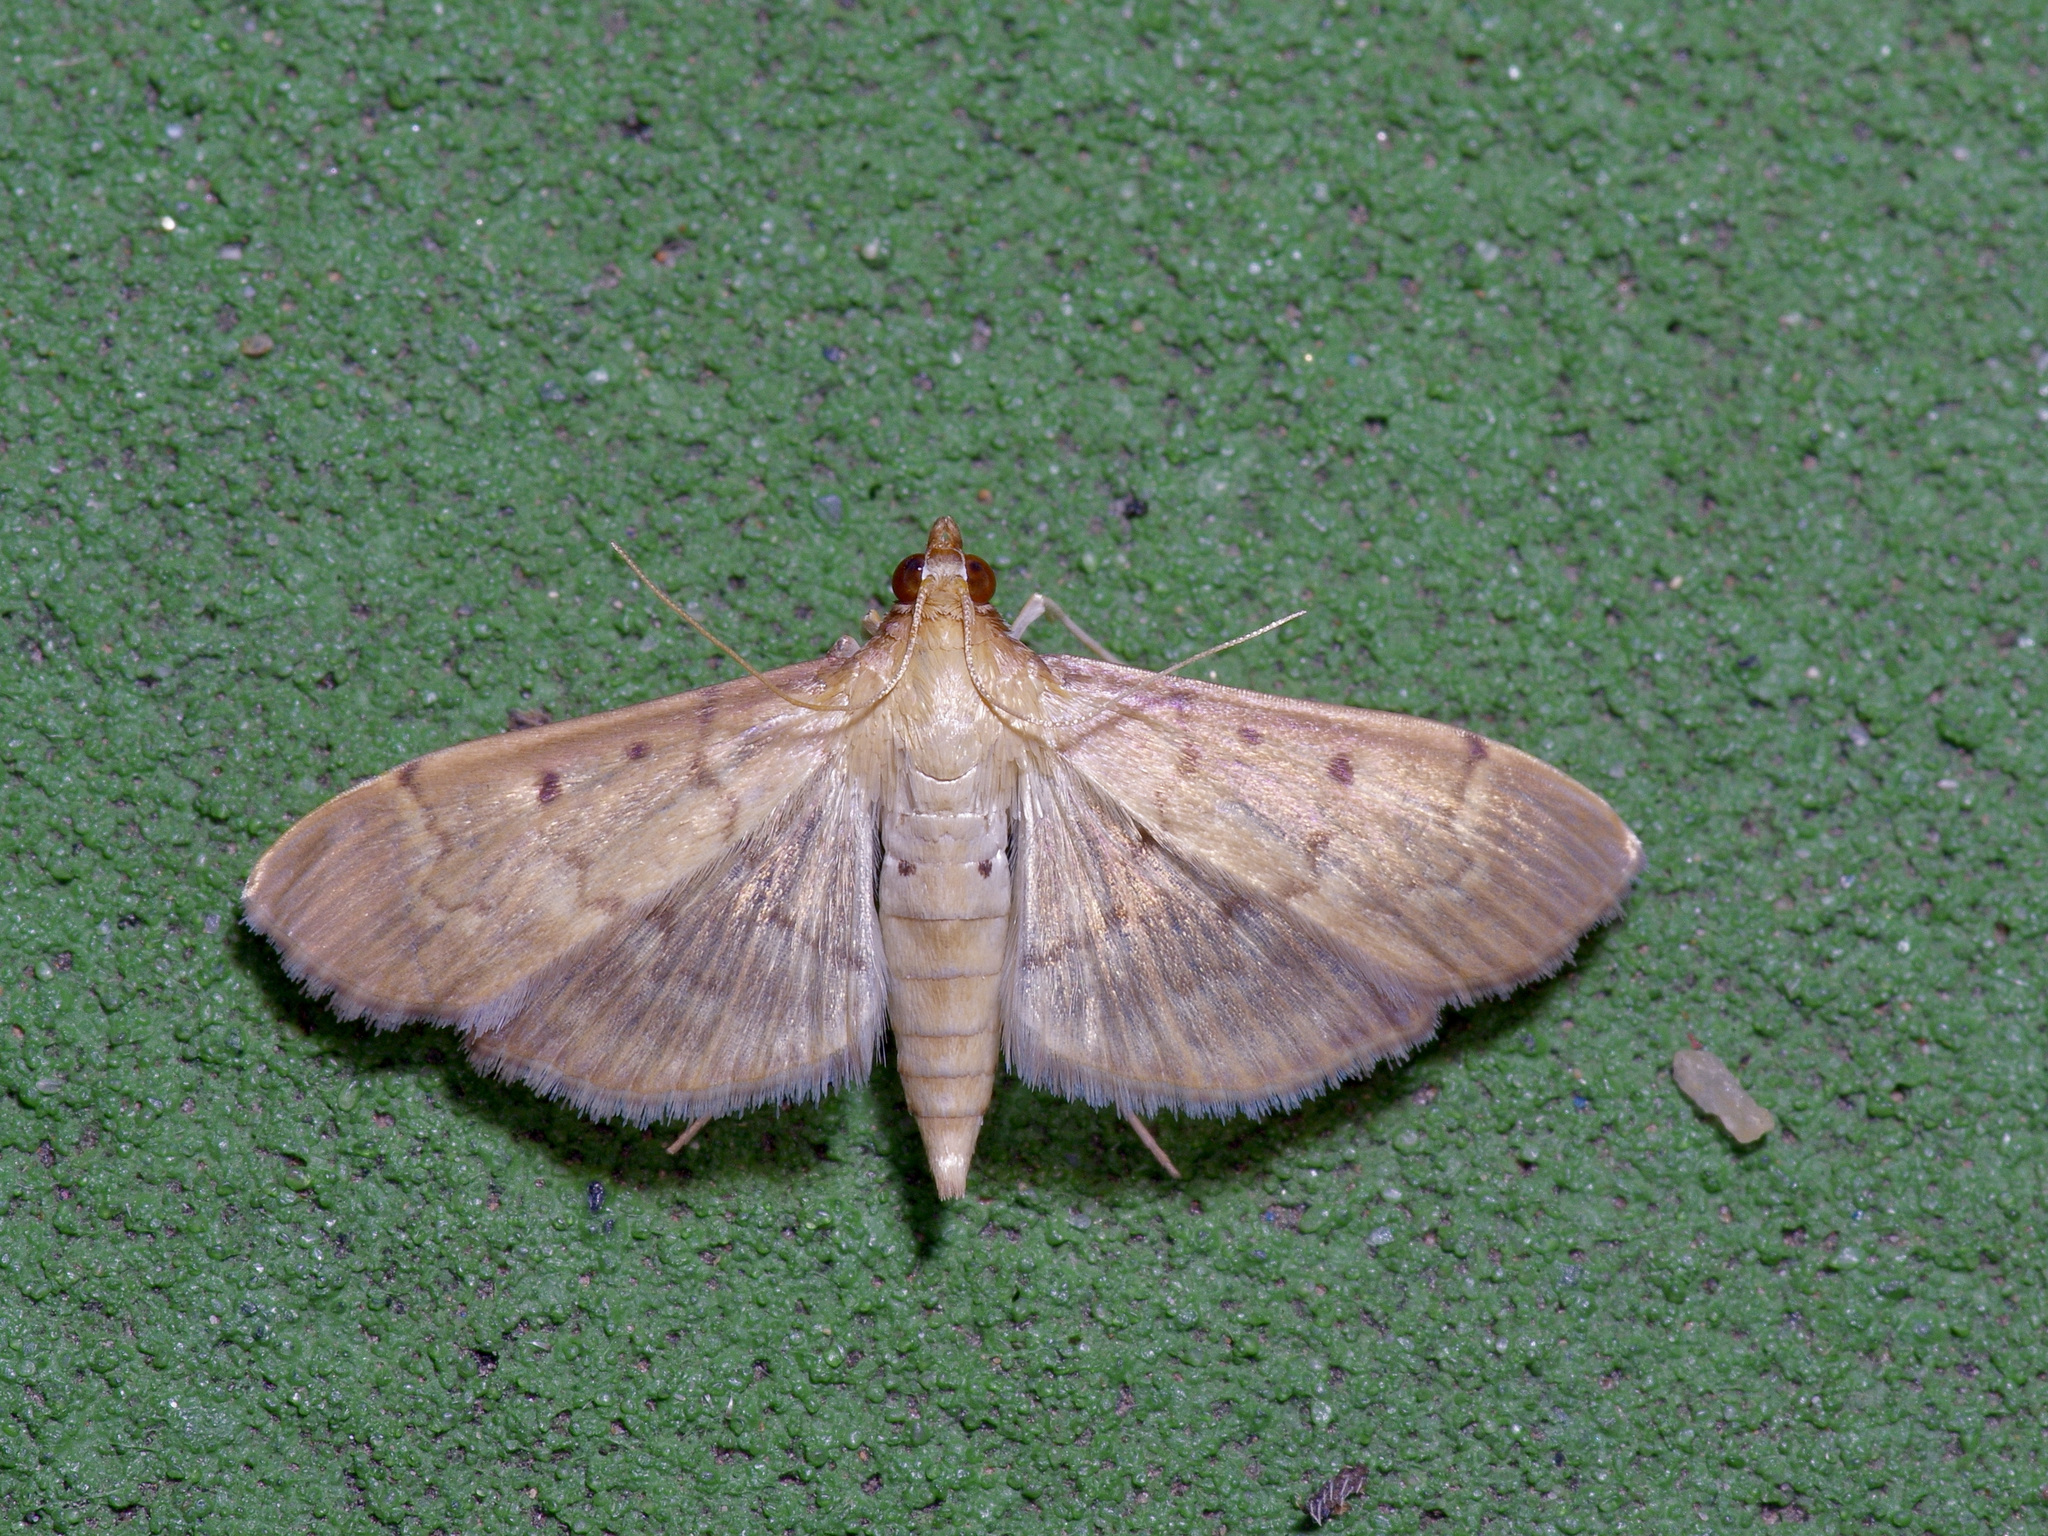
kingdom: Animalia
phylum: Arthropoda
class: Insecta
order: Lepidoptera
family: Crambidae
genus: Herpetogramma
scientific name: Herpetogramma bipunctalis
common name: Southern beet webworm
